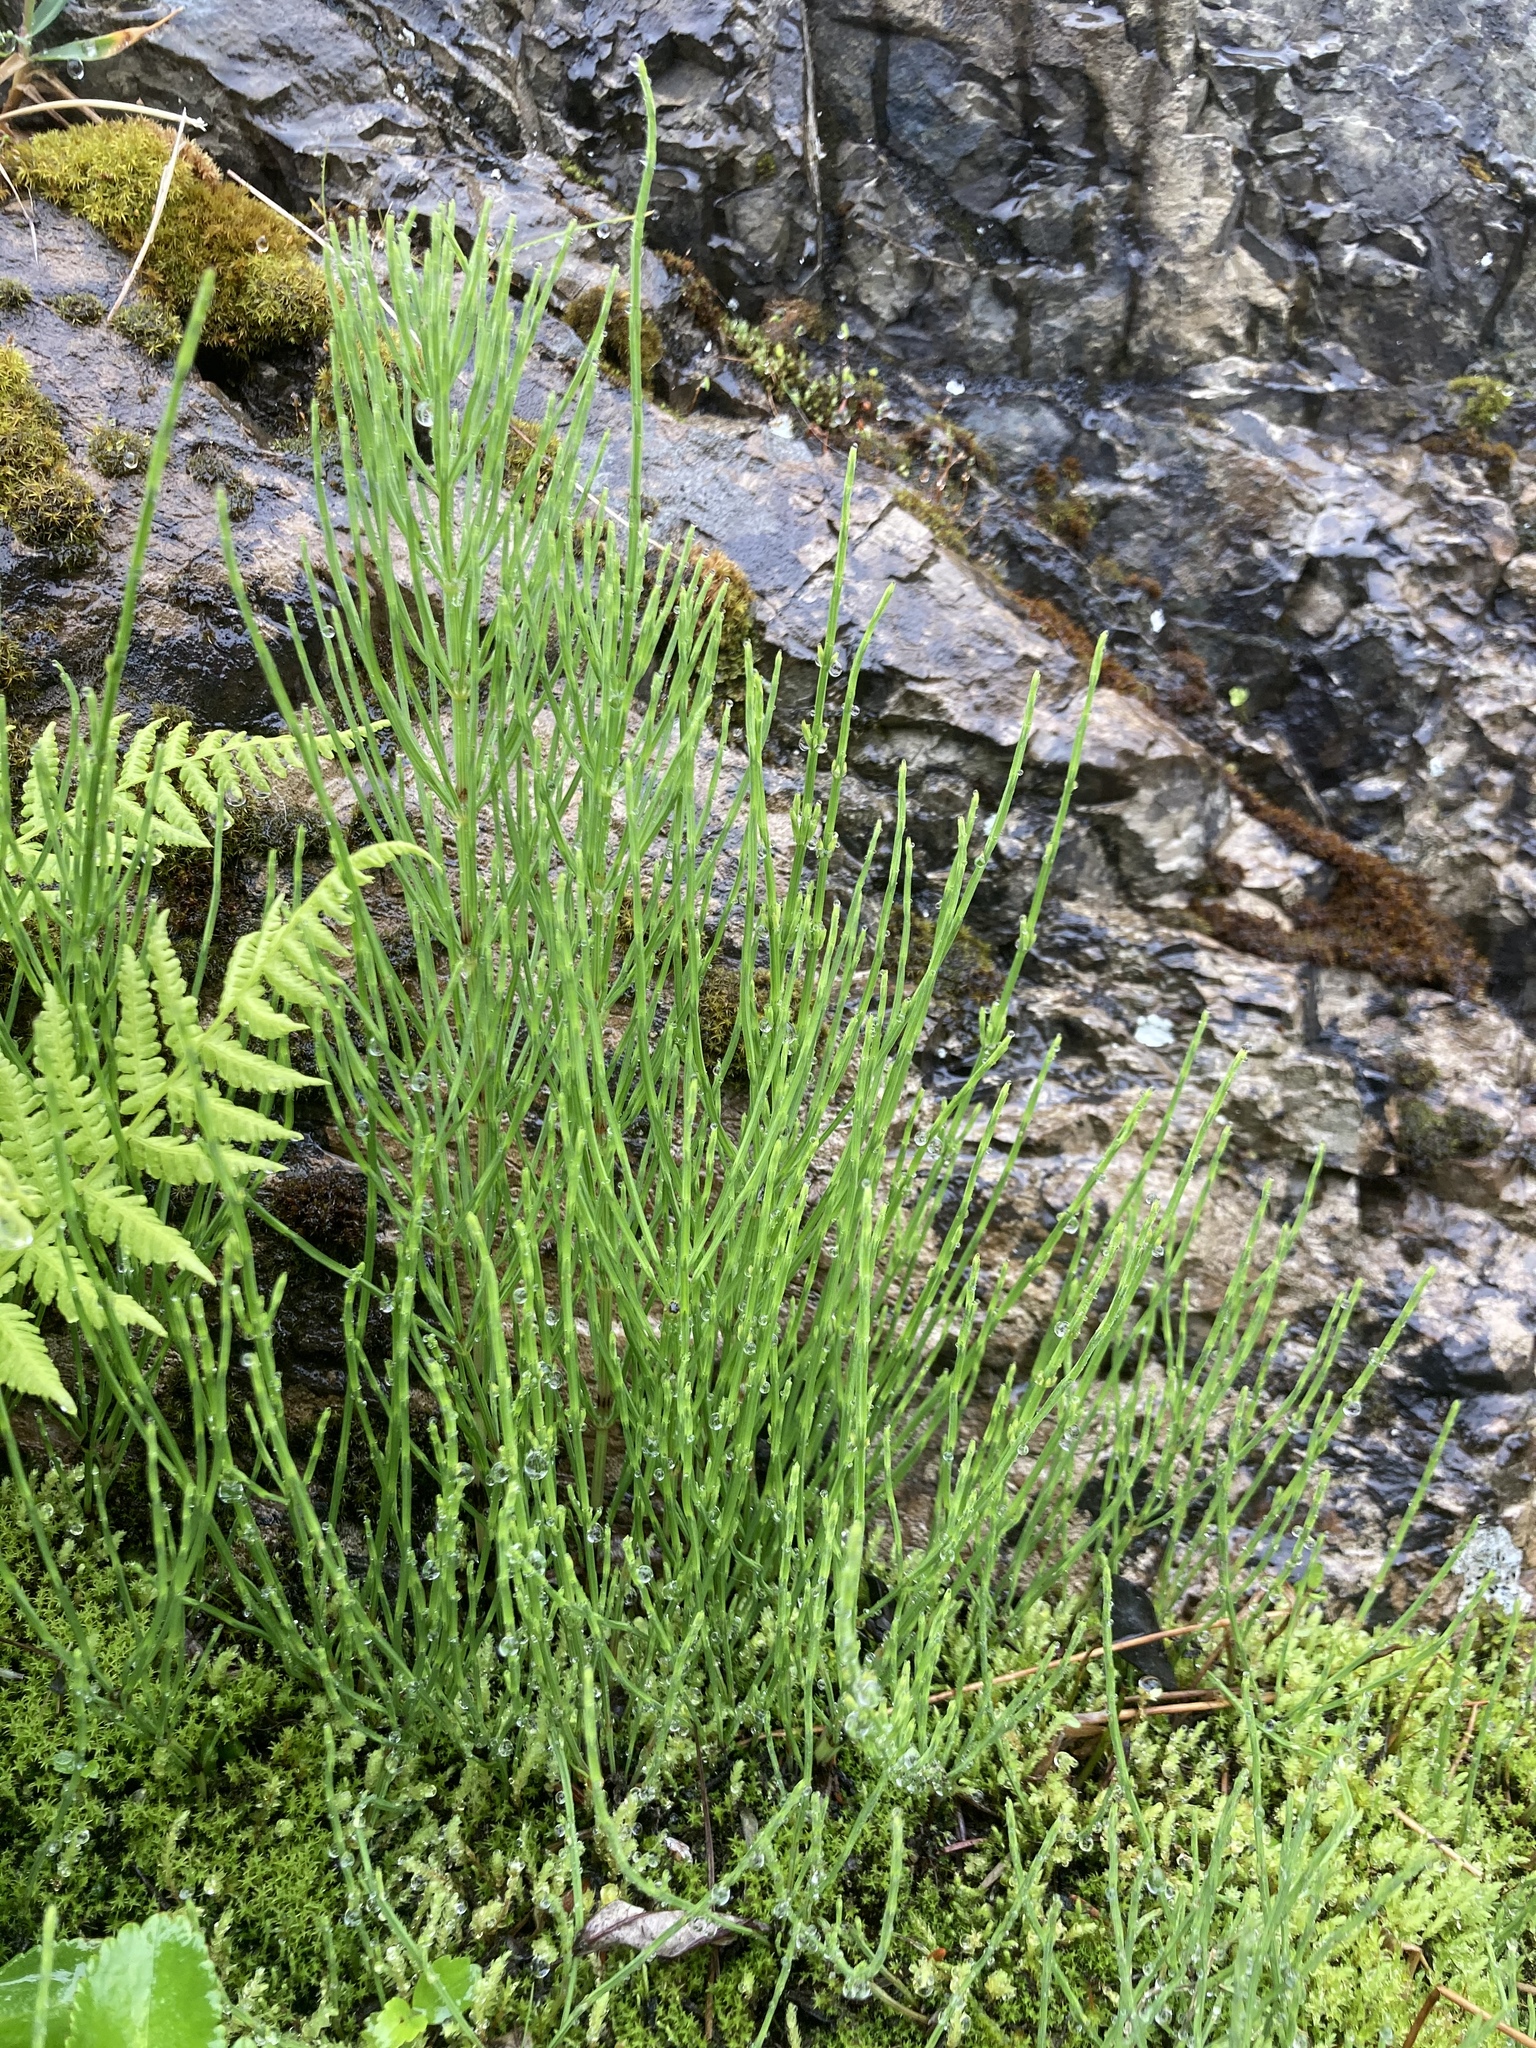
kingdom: Plantae
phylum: Tracheophyta
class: Polypodiopsida
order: Equisetales
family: Equisetaceae
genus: Equisetum
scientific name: Equisetum arvense
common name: Field horsetail
